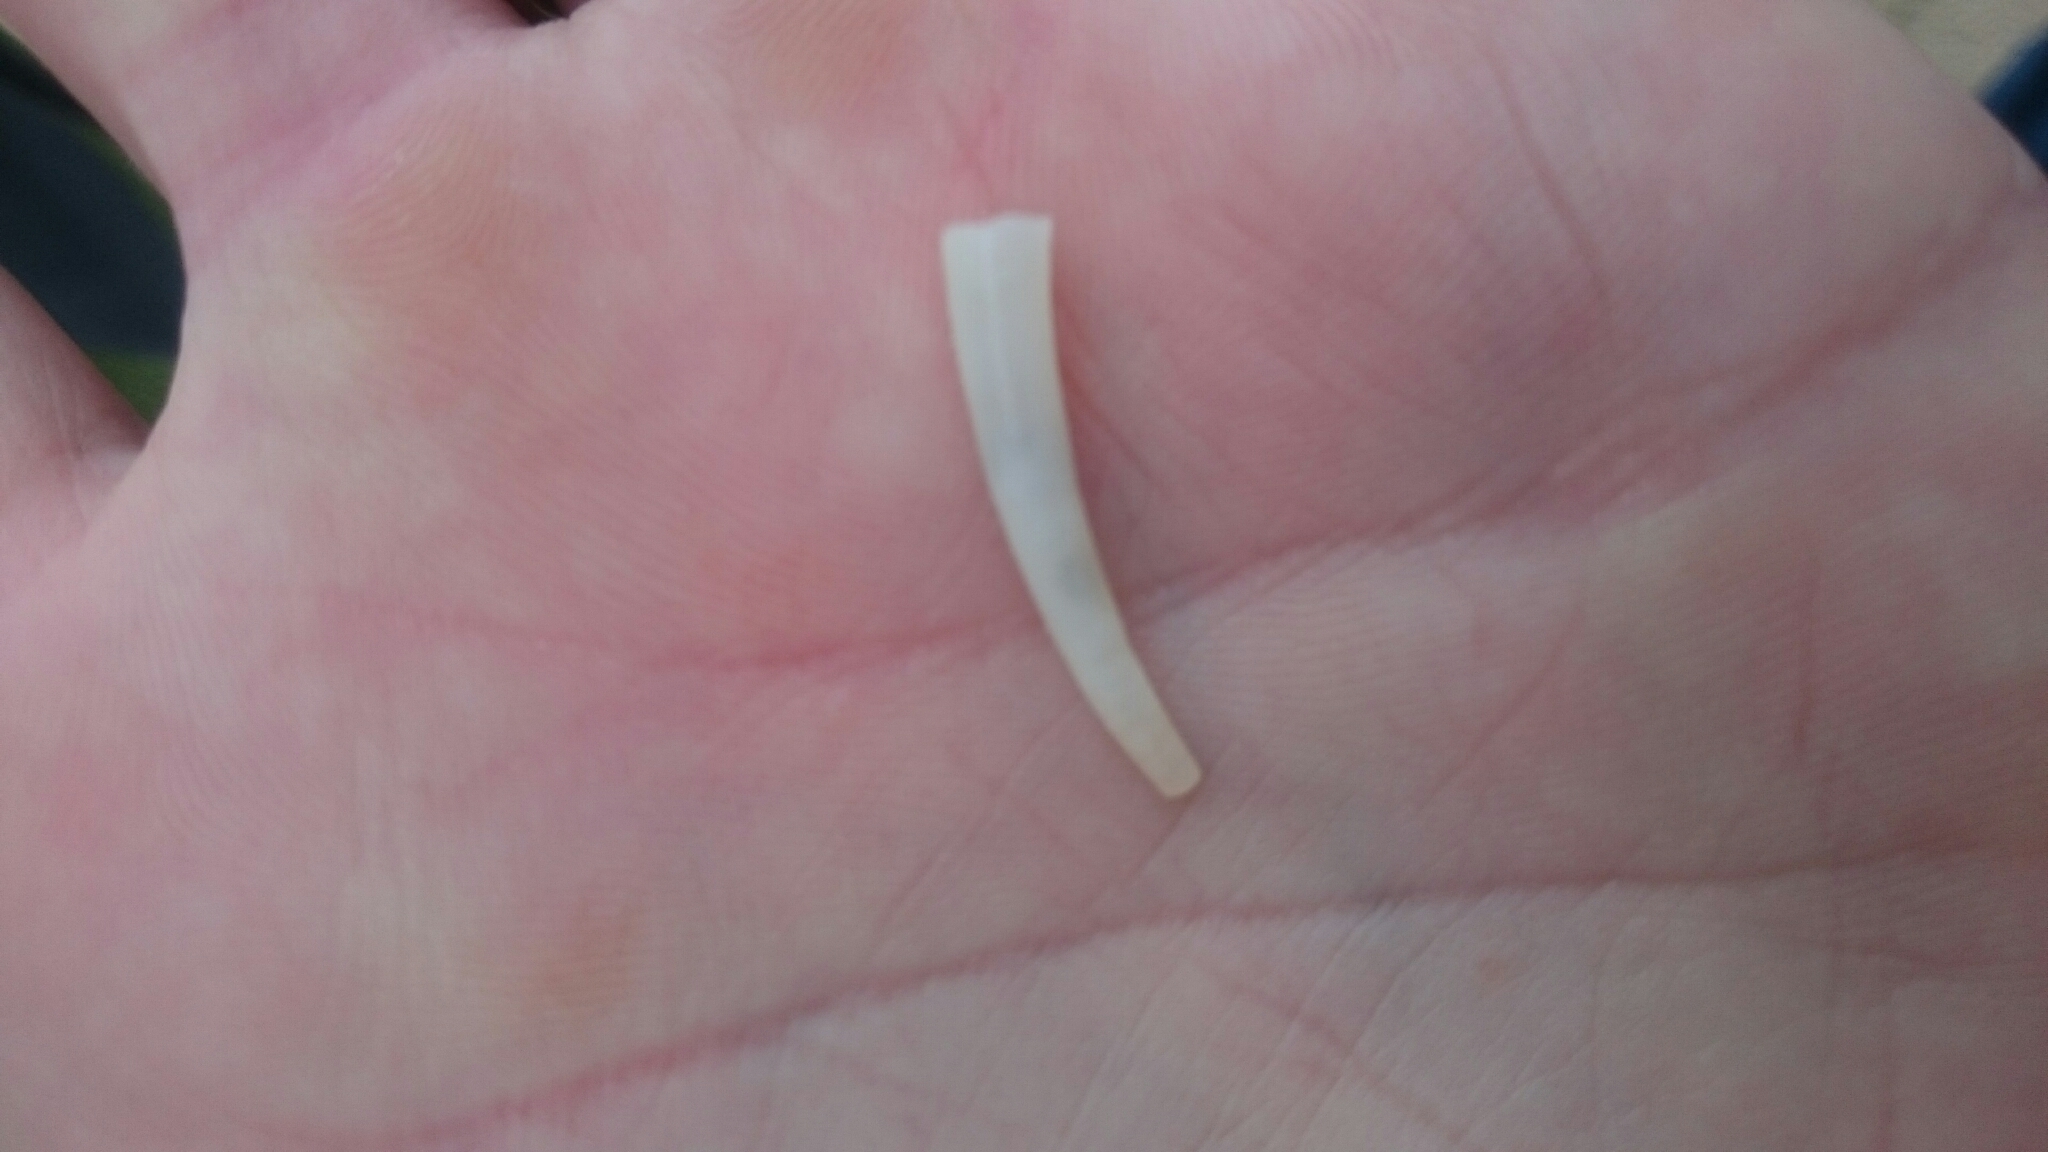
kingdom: Animalia
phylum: Mollusca
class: Scaphopoda
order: Dentaliida
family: Dentaliidae
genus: Antalis
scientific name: Antalis vulgaris
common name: Common elephant's tusk
